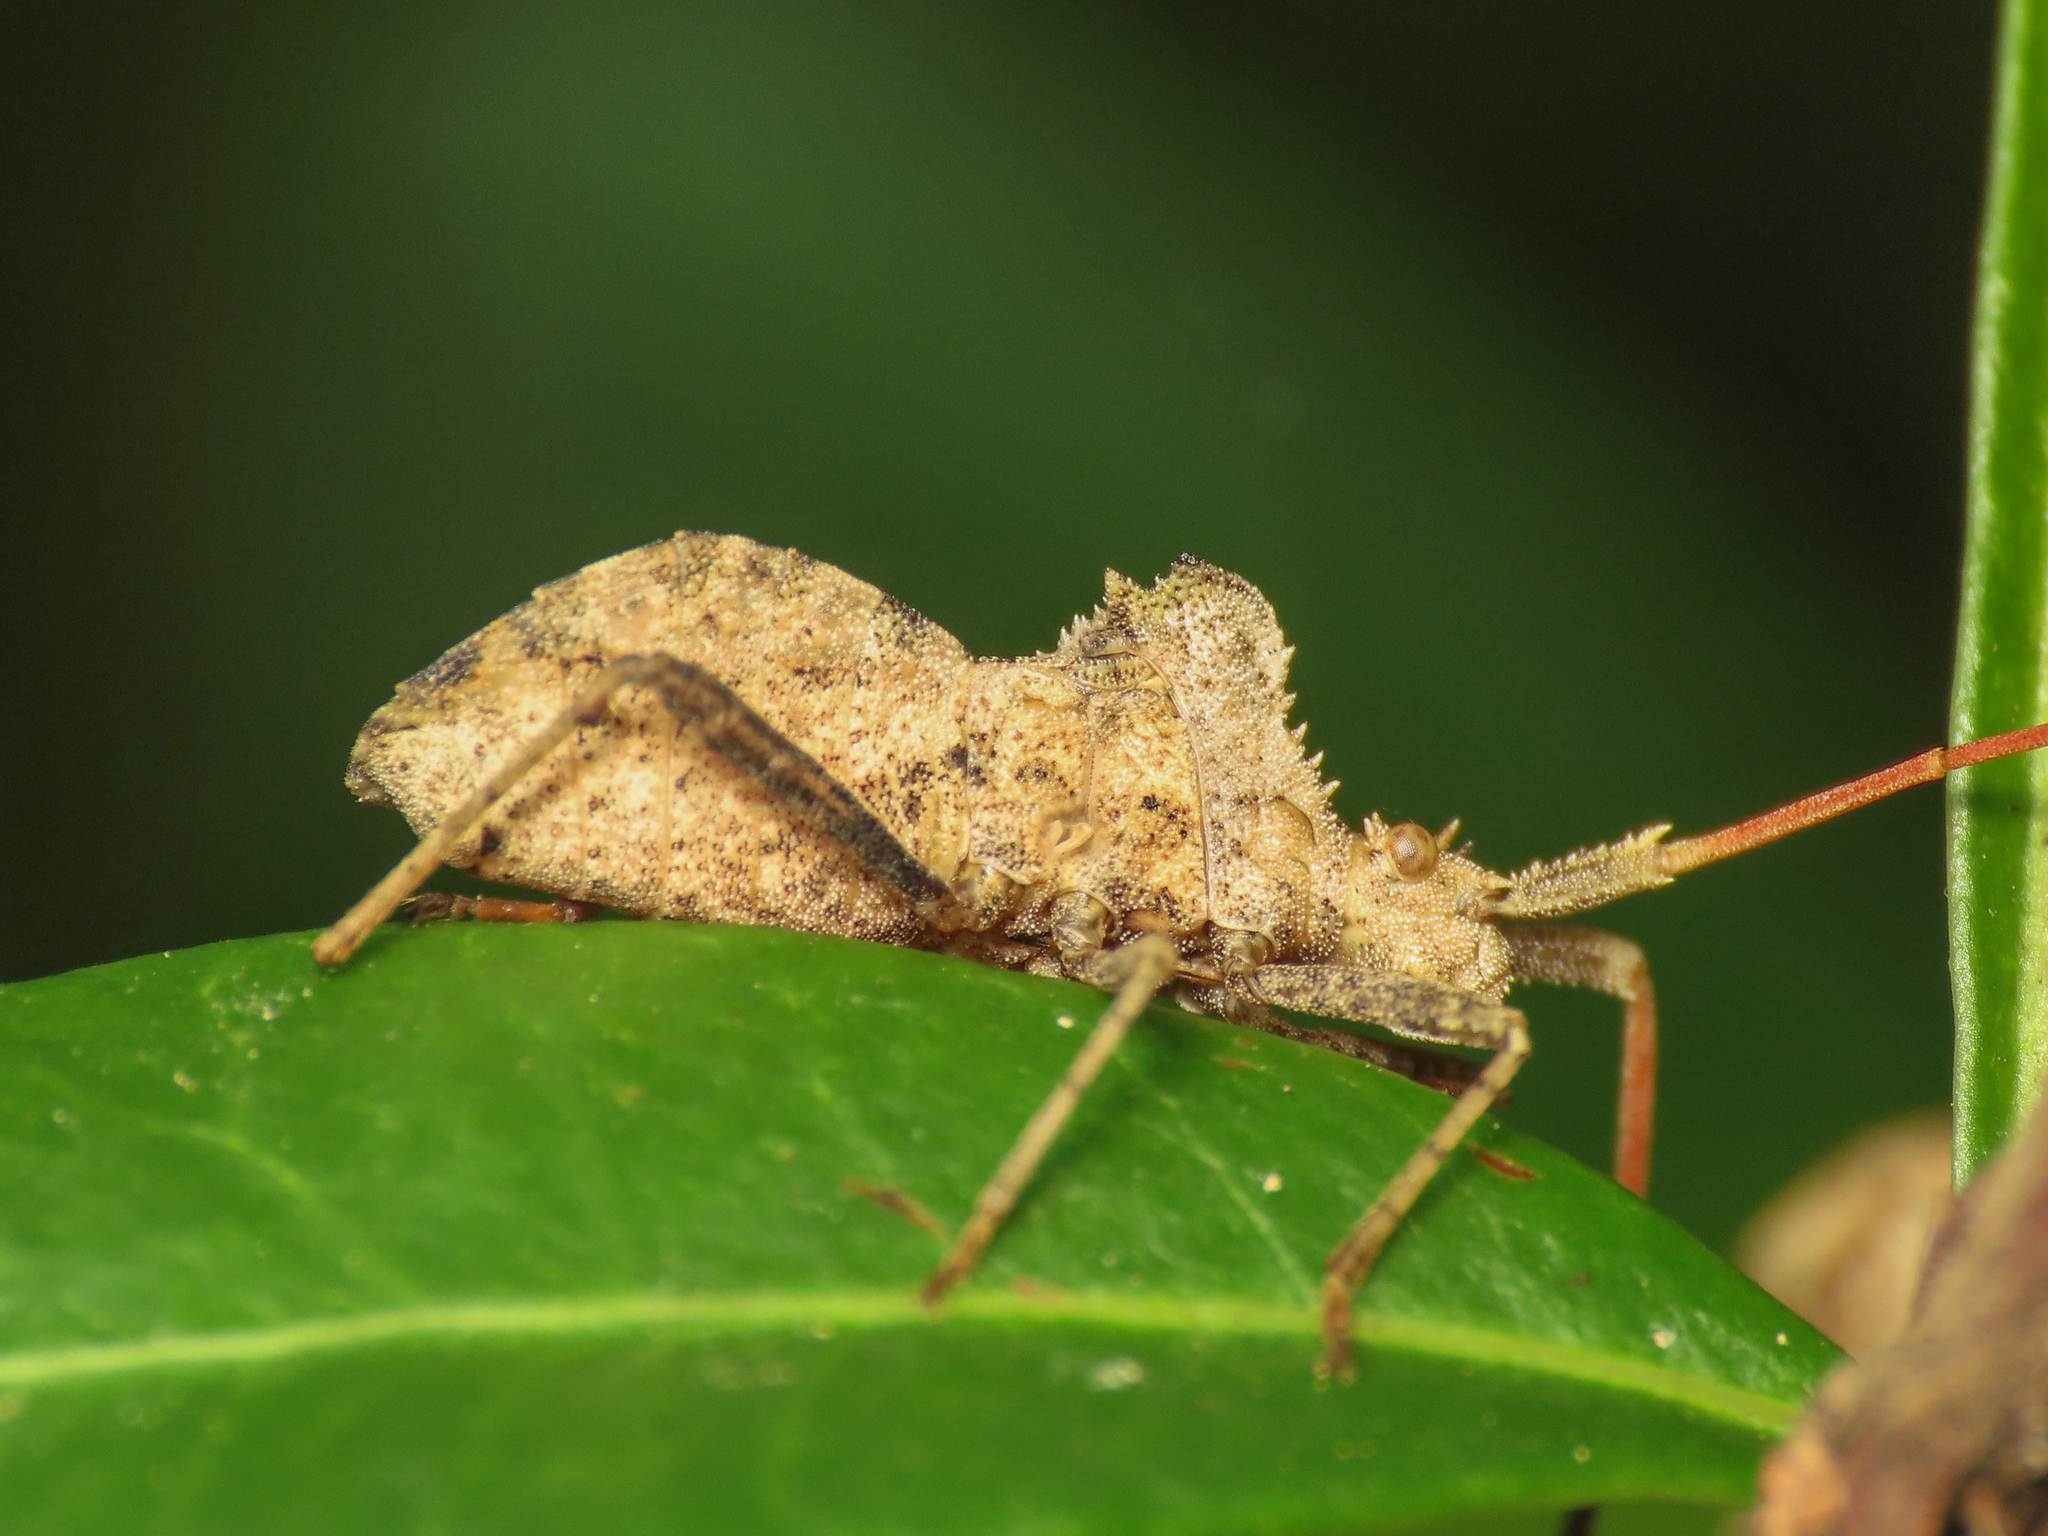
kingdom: Animalia
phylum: Arthropoda
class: Insecta
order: Hemiptera
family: Coreidae
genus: Centrocoris
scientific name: Centrocoris spiniger
